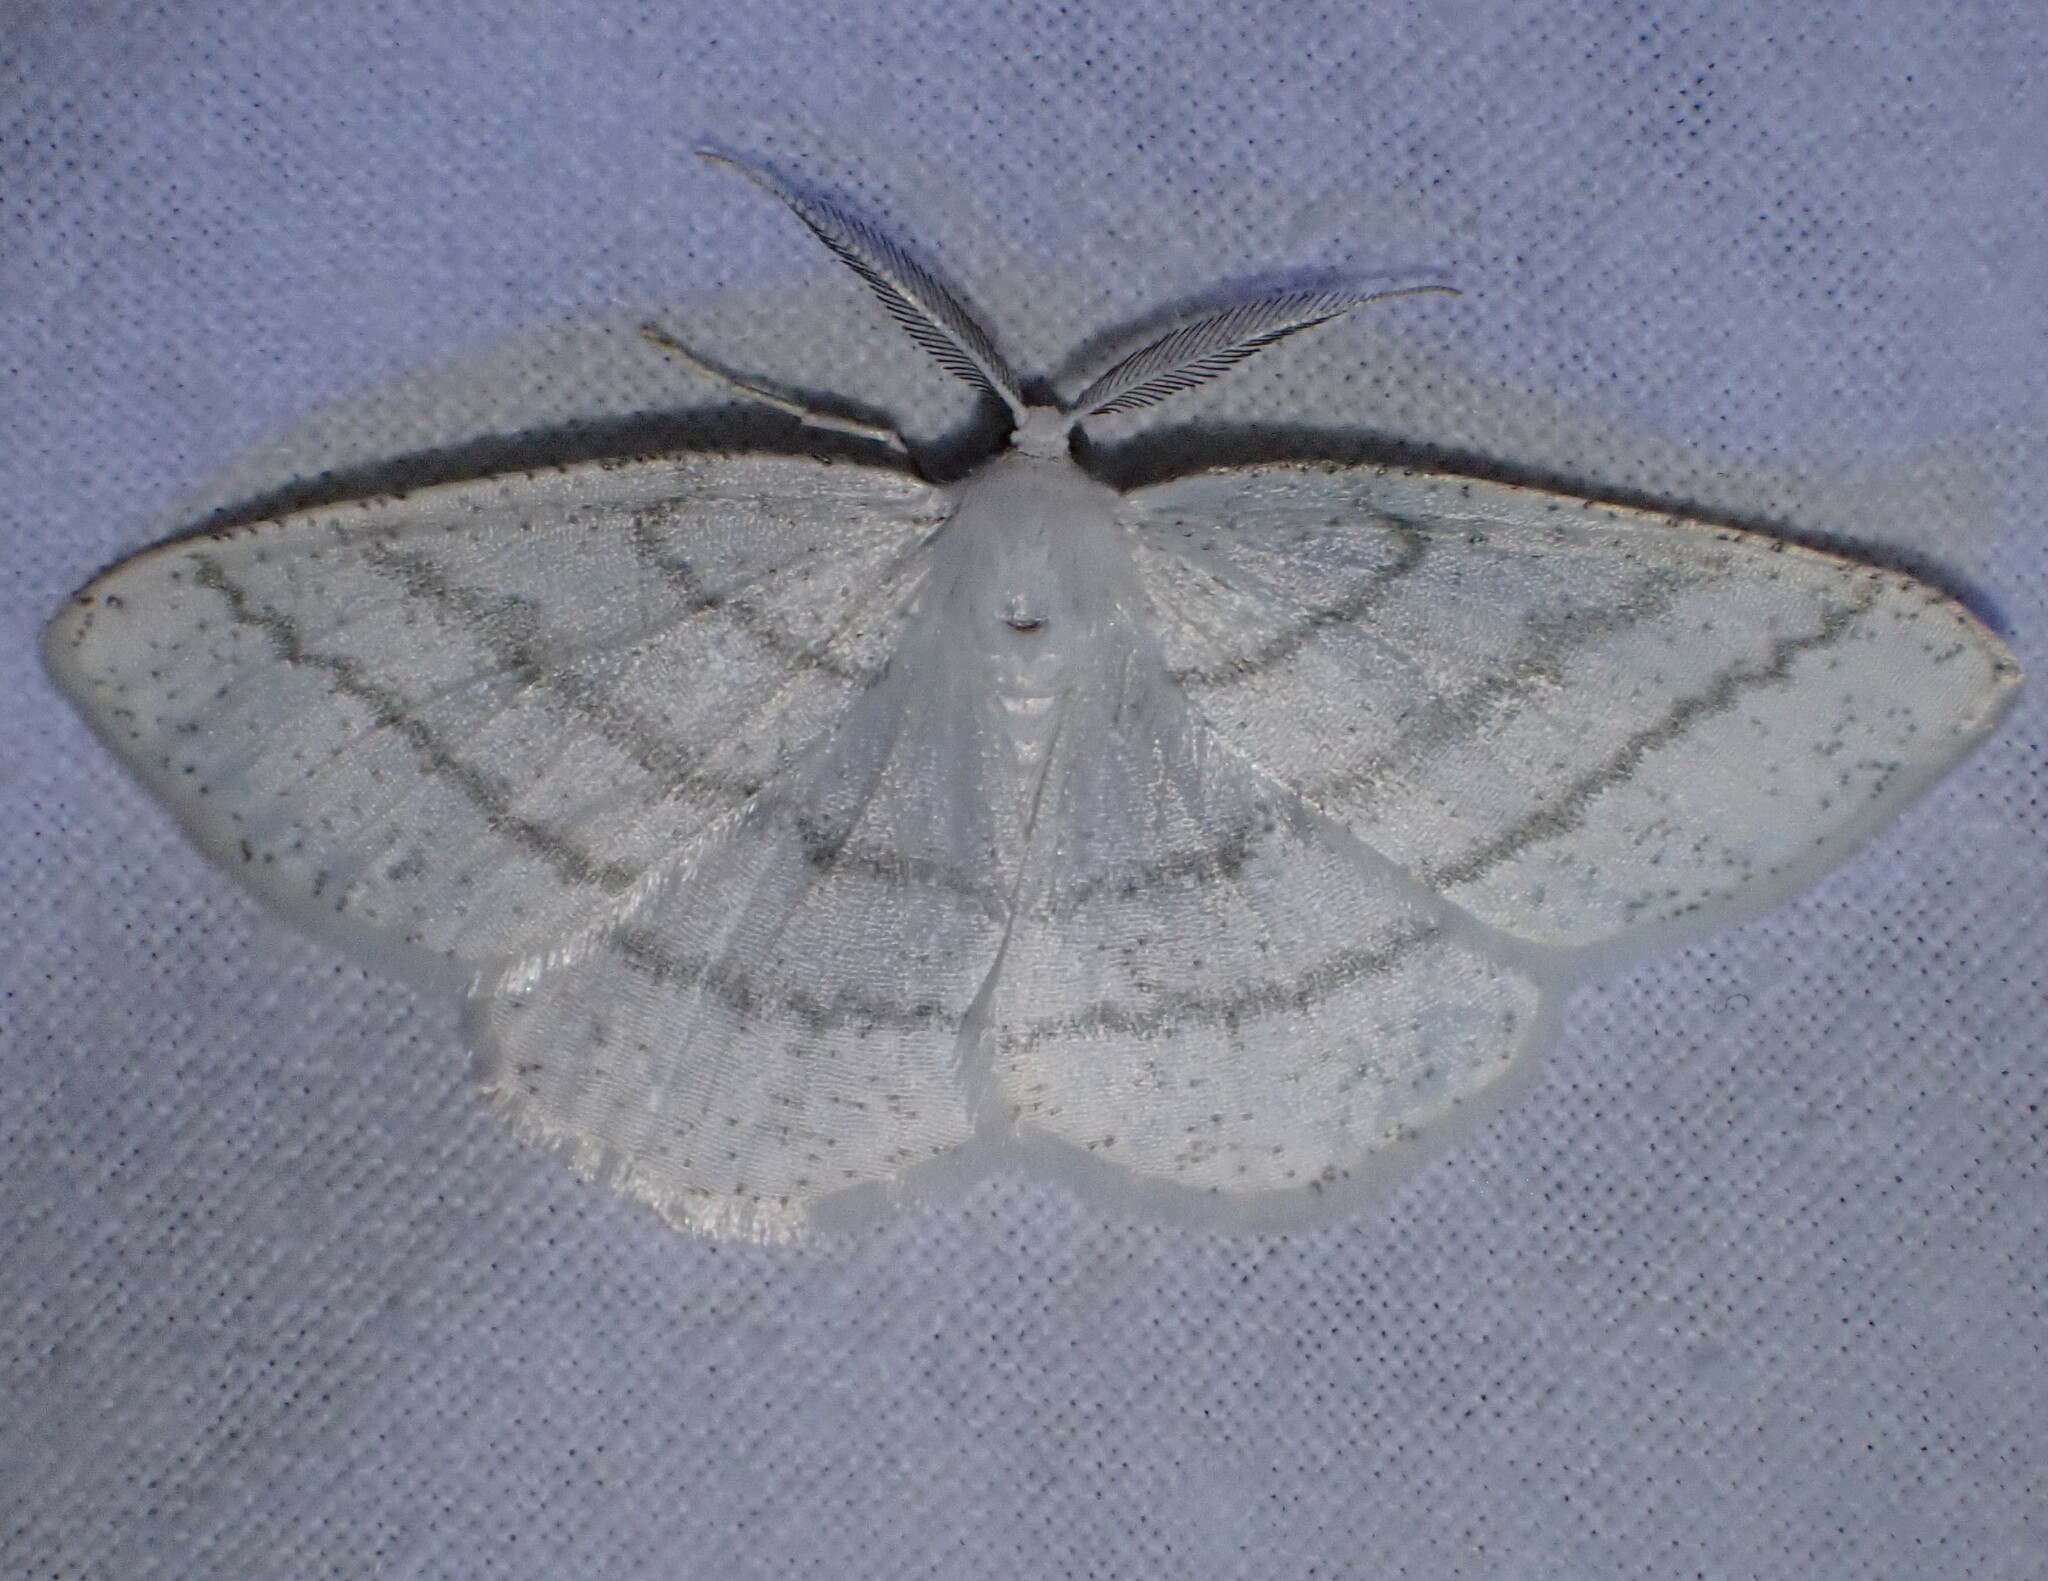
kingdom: Animalia
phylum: Arthropoda
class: Insecta
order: Lepidoptera
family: Geometridae
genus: Cabera
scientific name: Cabera pusaria
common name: Common white wave
